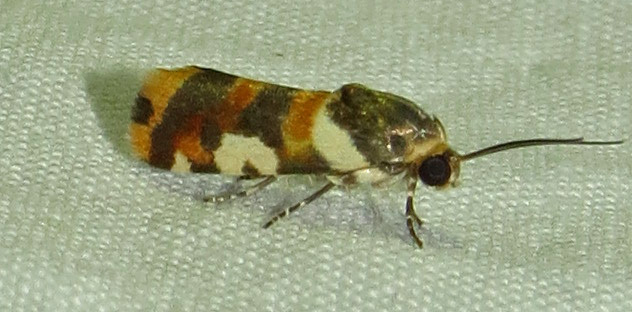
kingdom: Animalia
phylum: Arthropoda
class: Insecta
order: Lepidoptera
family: Noctuidae
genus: Acontia
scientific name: Acontia dama
